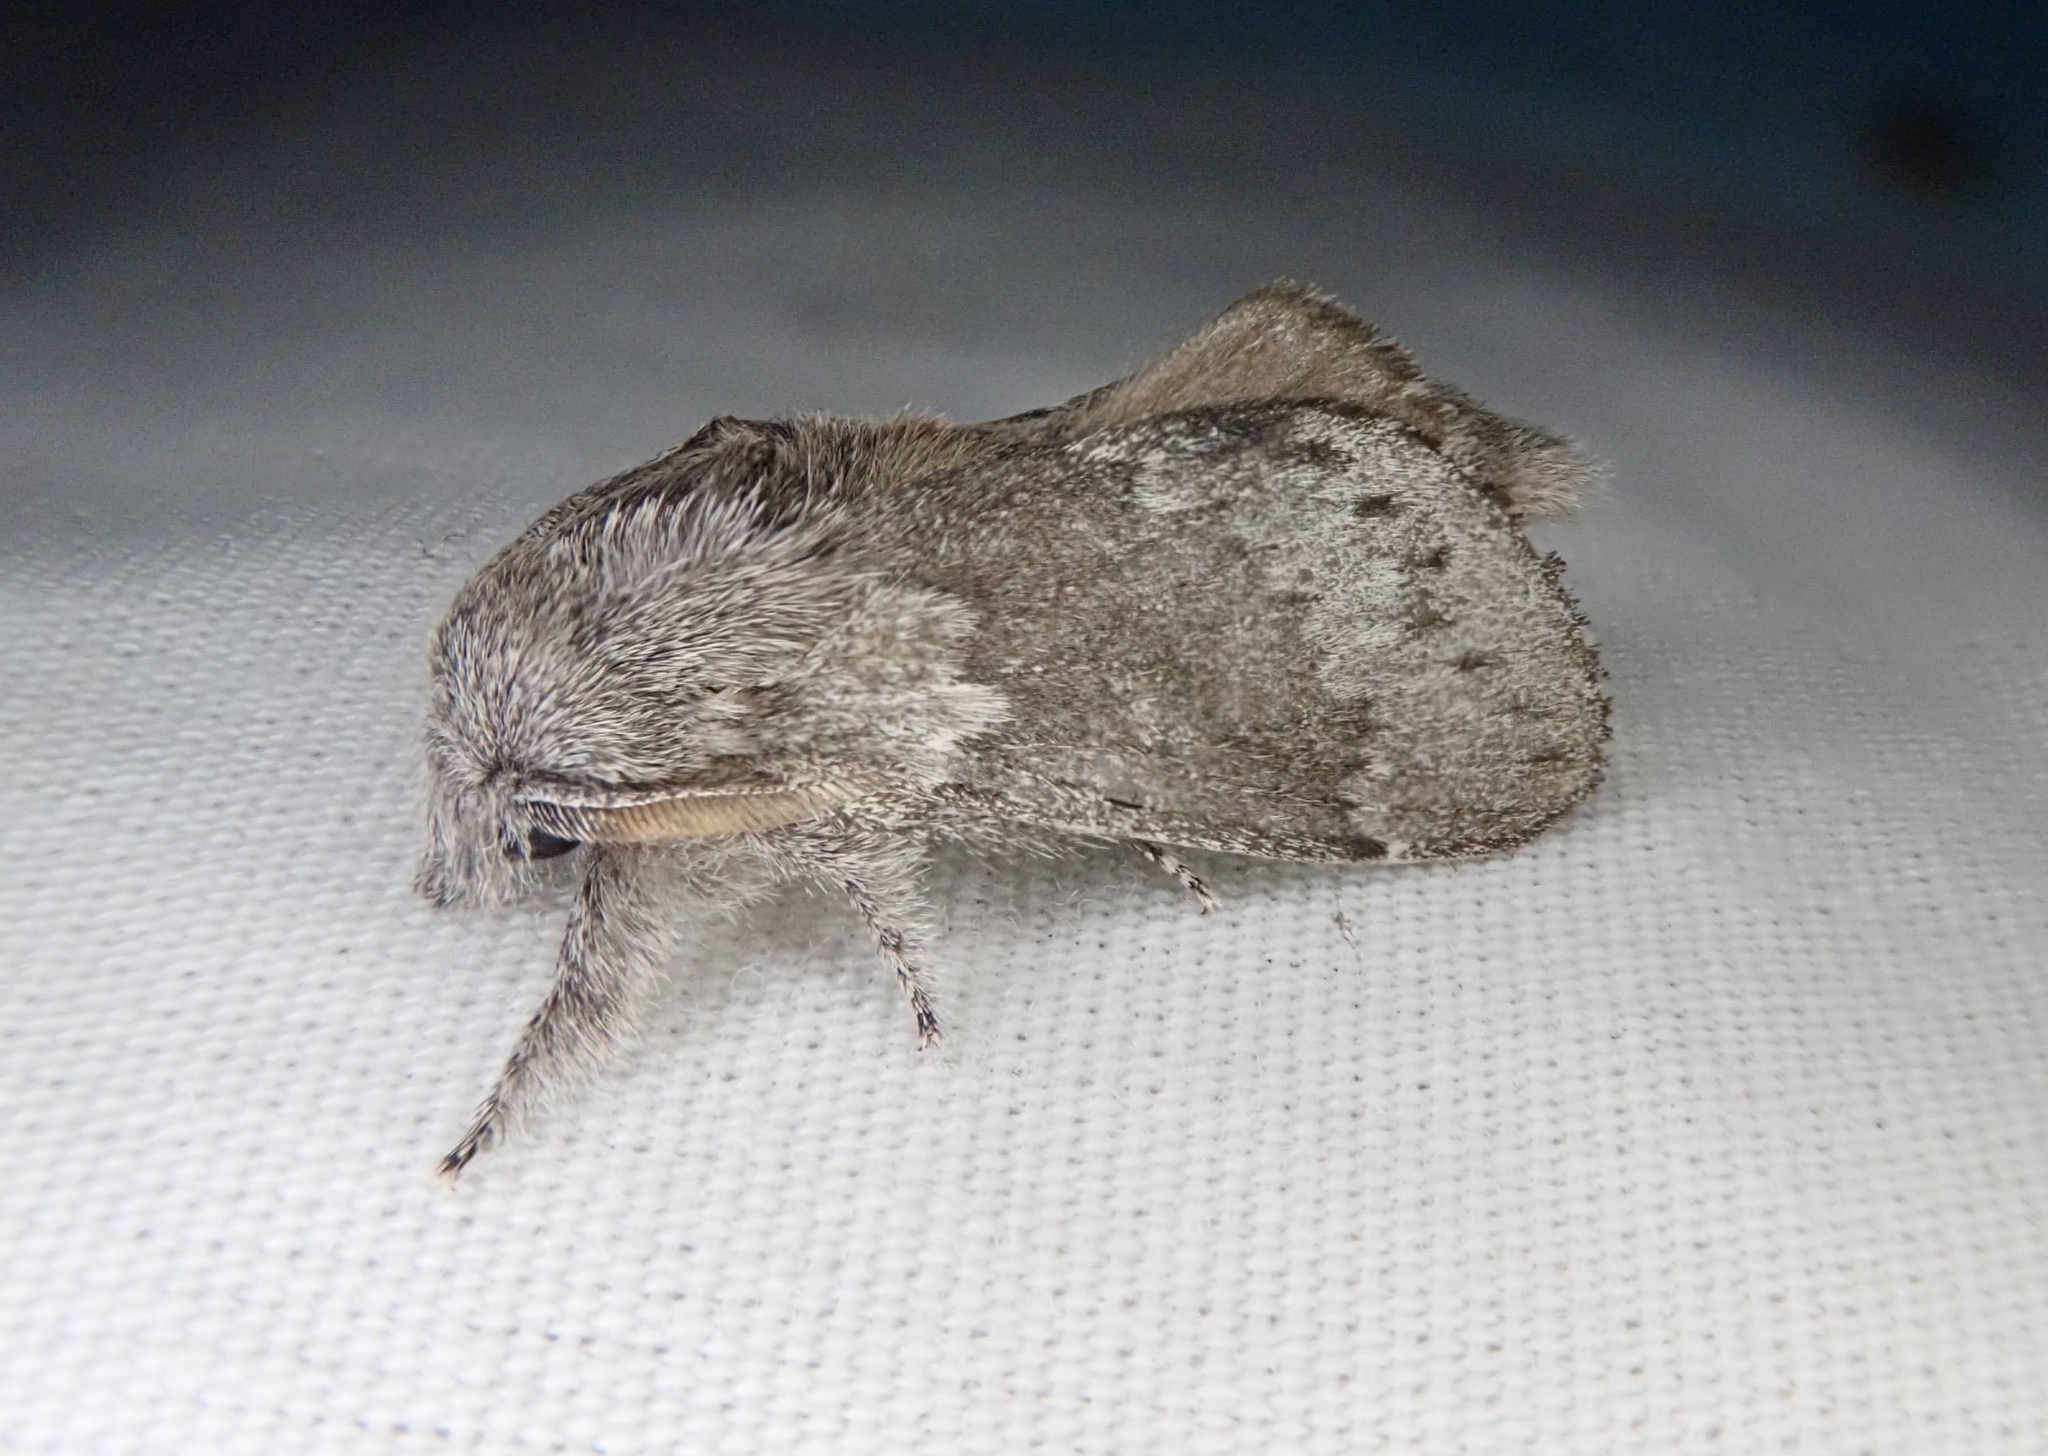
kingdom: Animalia
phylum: Arthropoda
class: Insecta
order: Lepidoptera
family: Lasiocampidae
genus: Heteropacha
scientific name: Heteropacha rileyana
